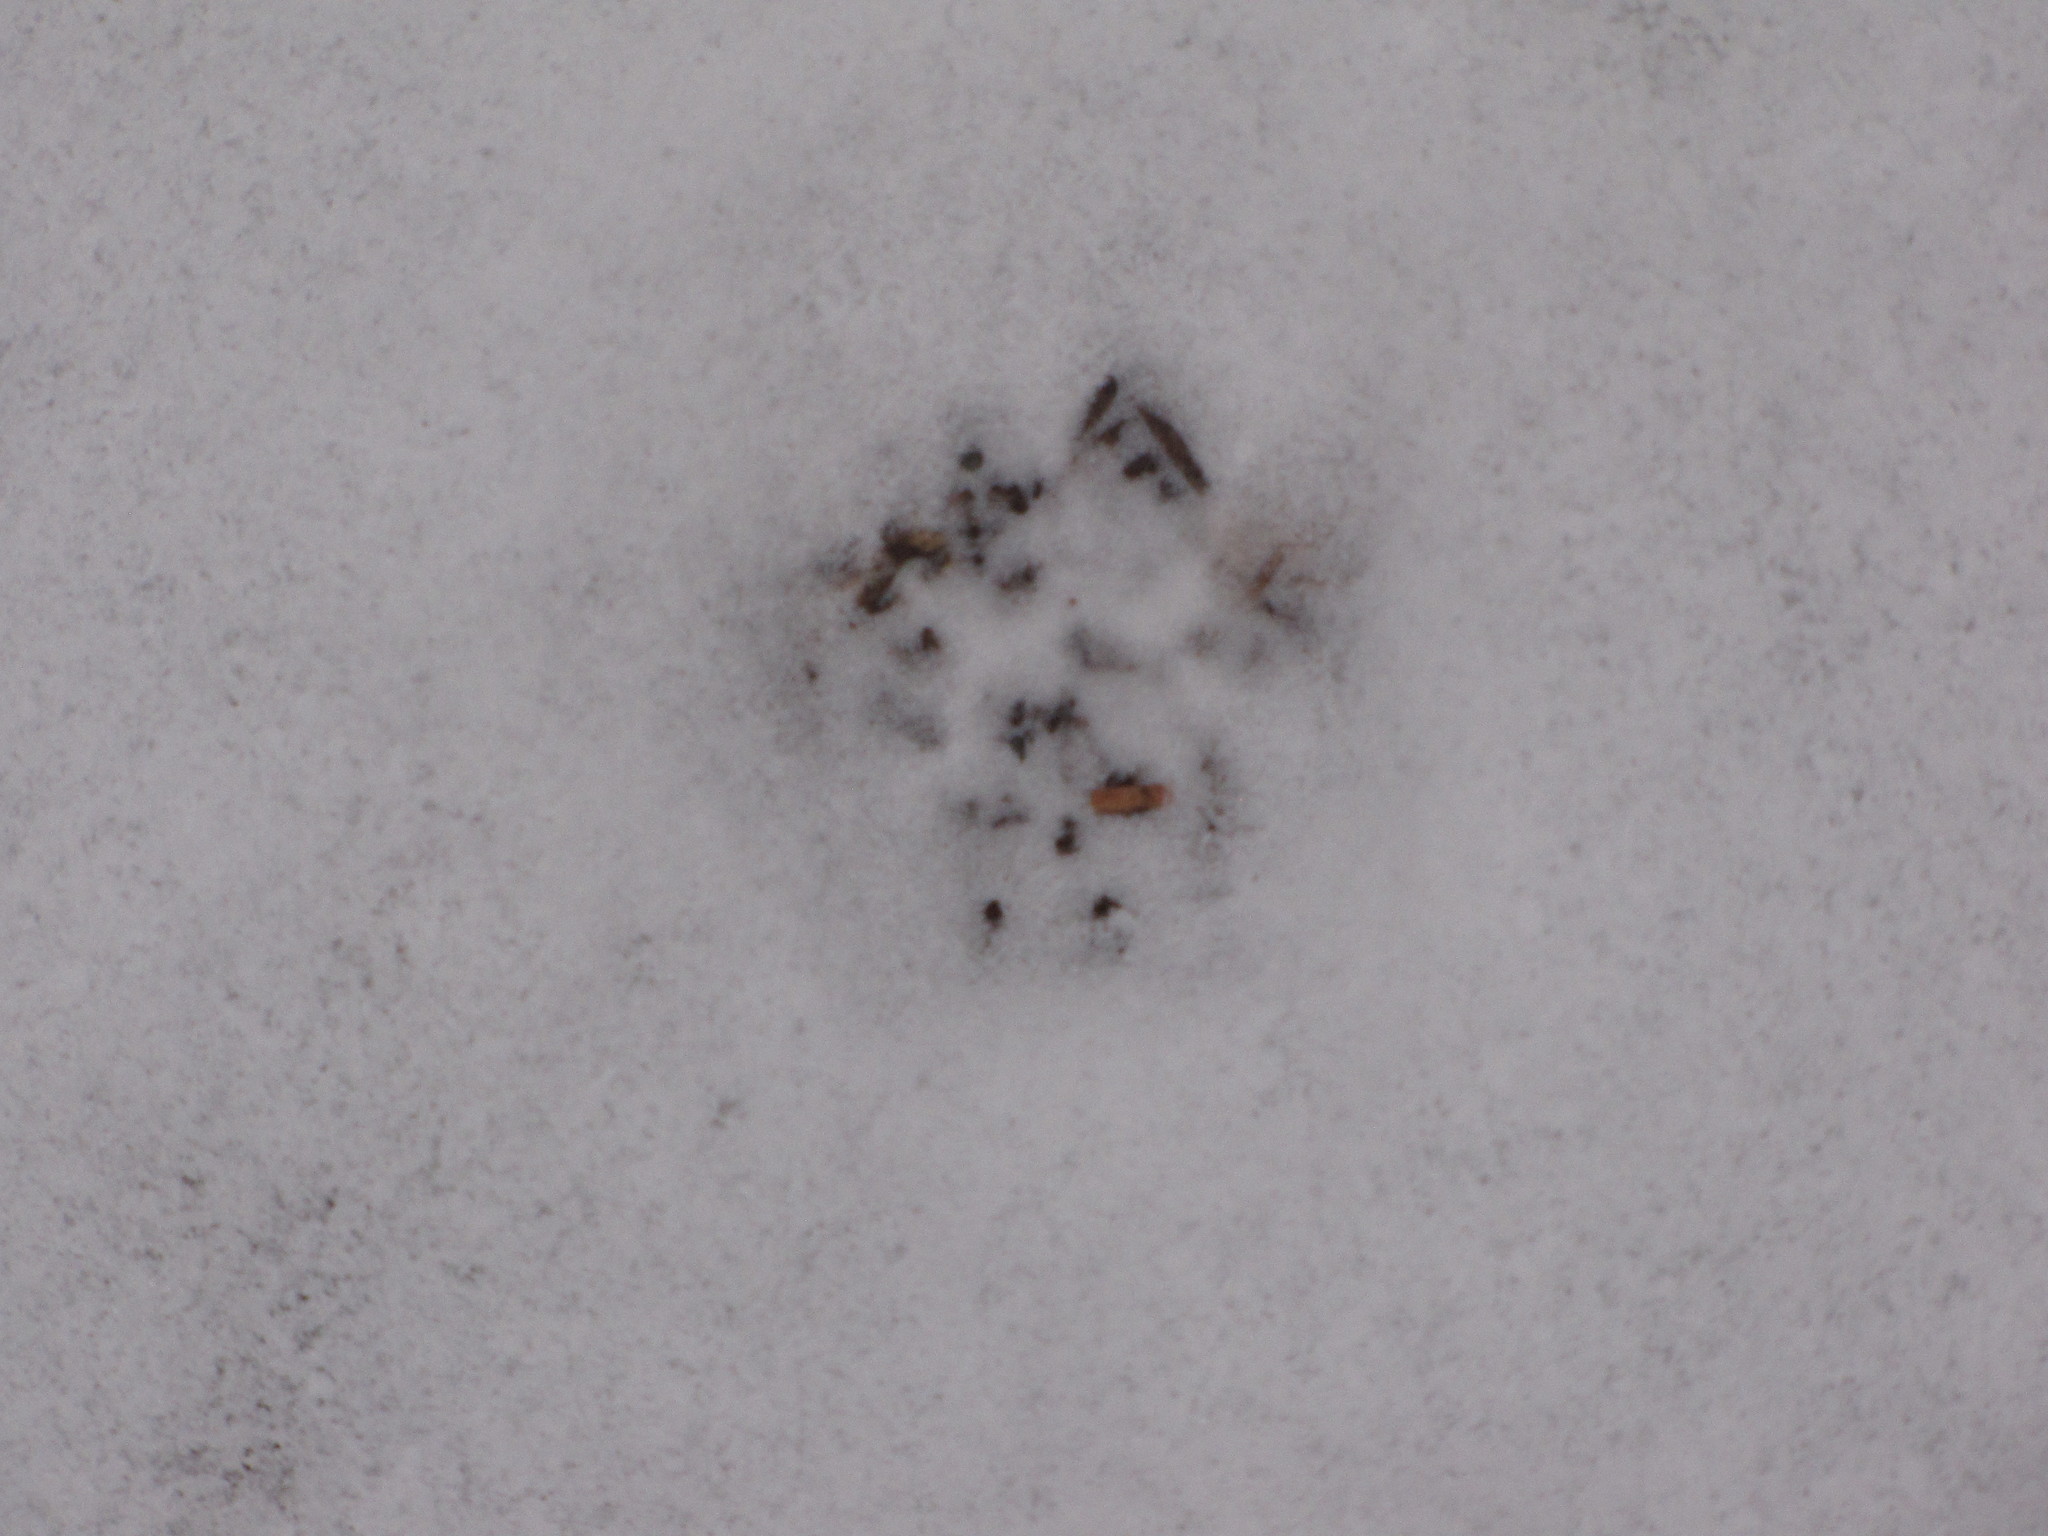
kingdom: Animalia
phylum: Chordata
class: Mammalia
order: Carnivora
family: Felidae
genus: Felis
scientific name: Felis catus
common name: Domestic cat
